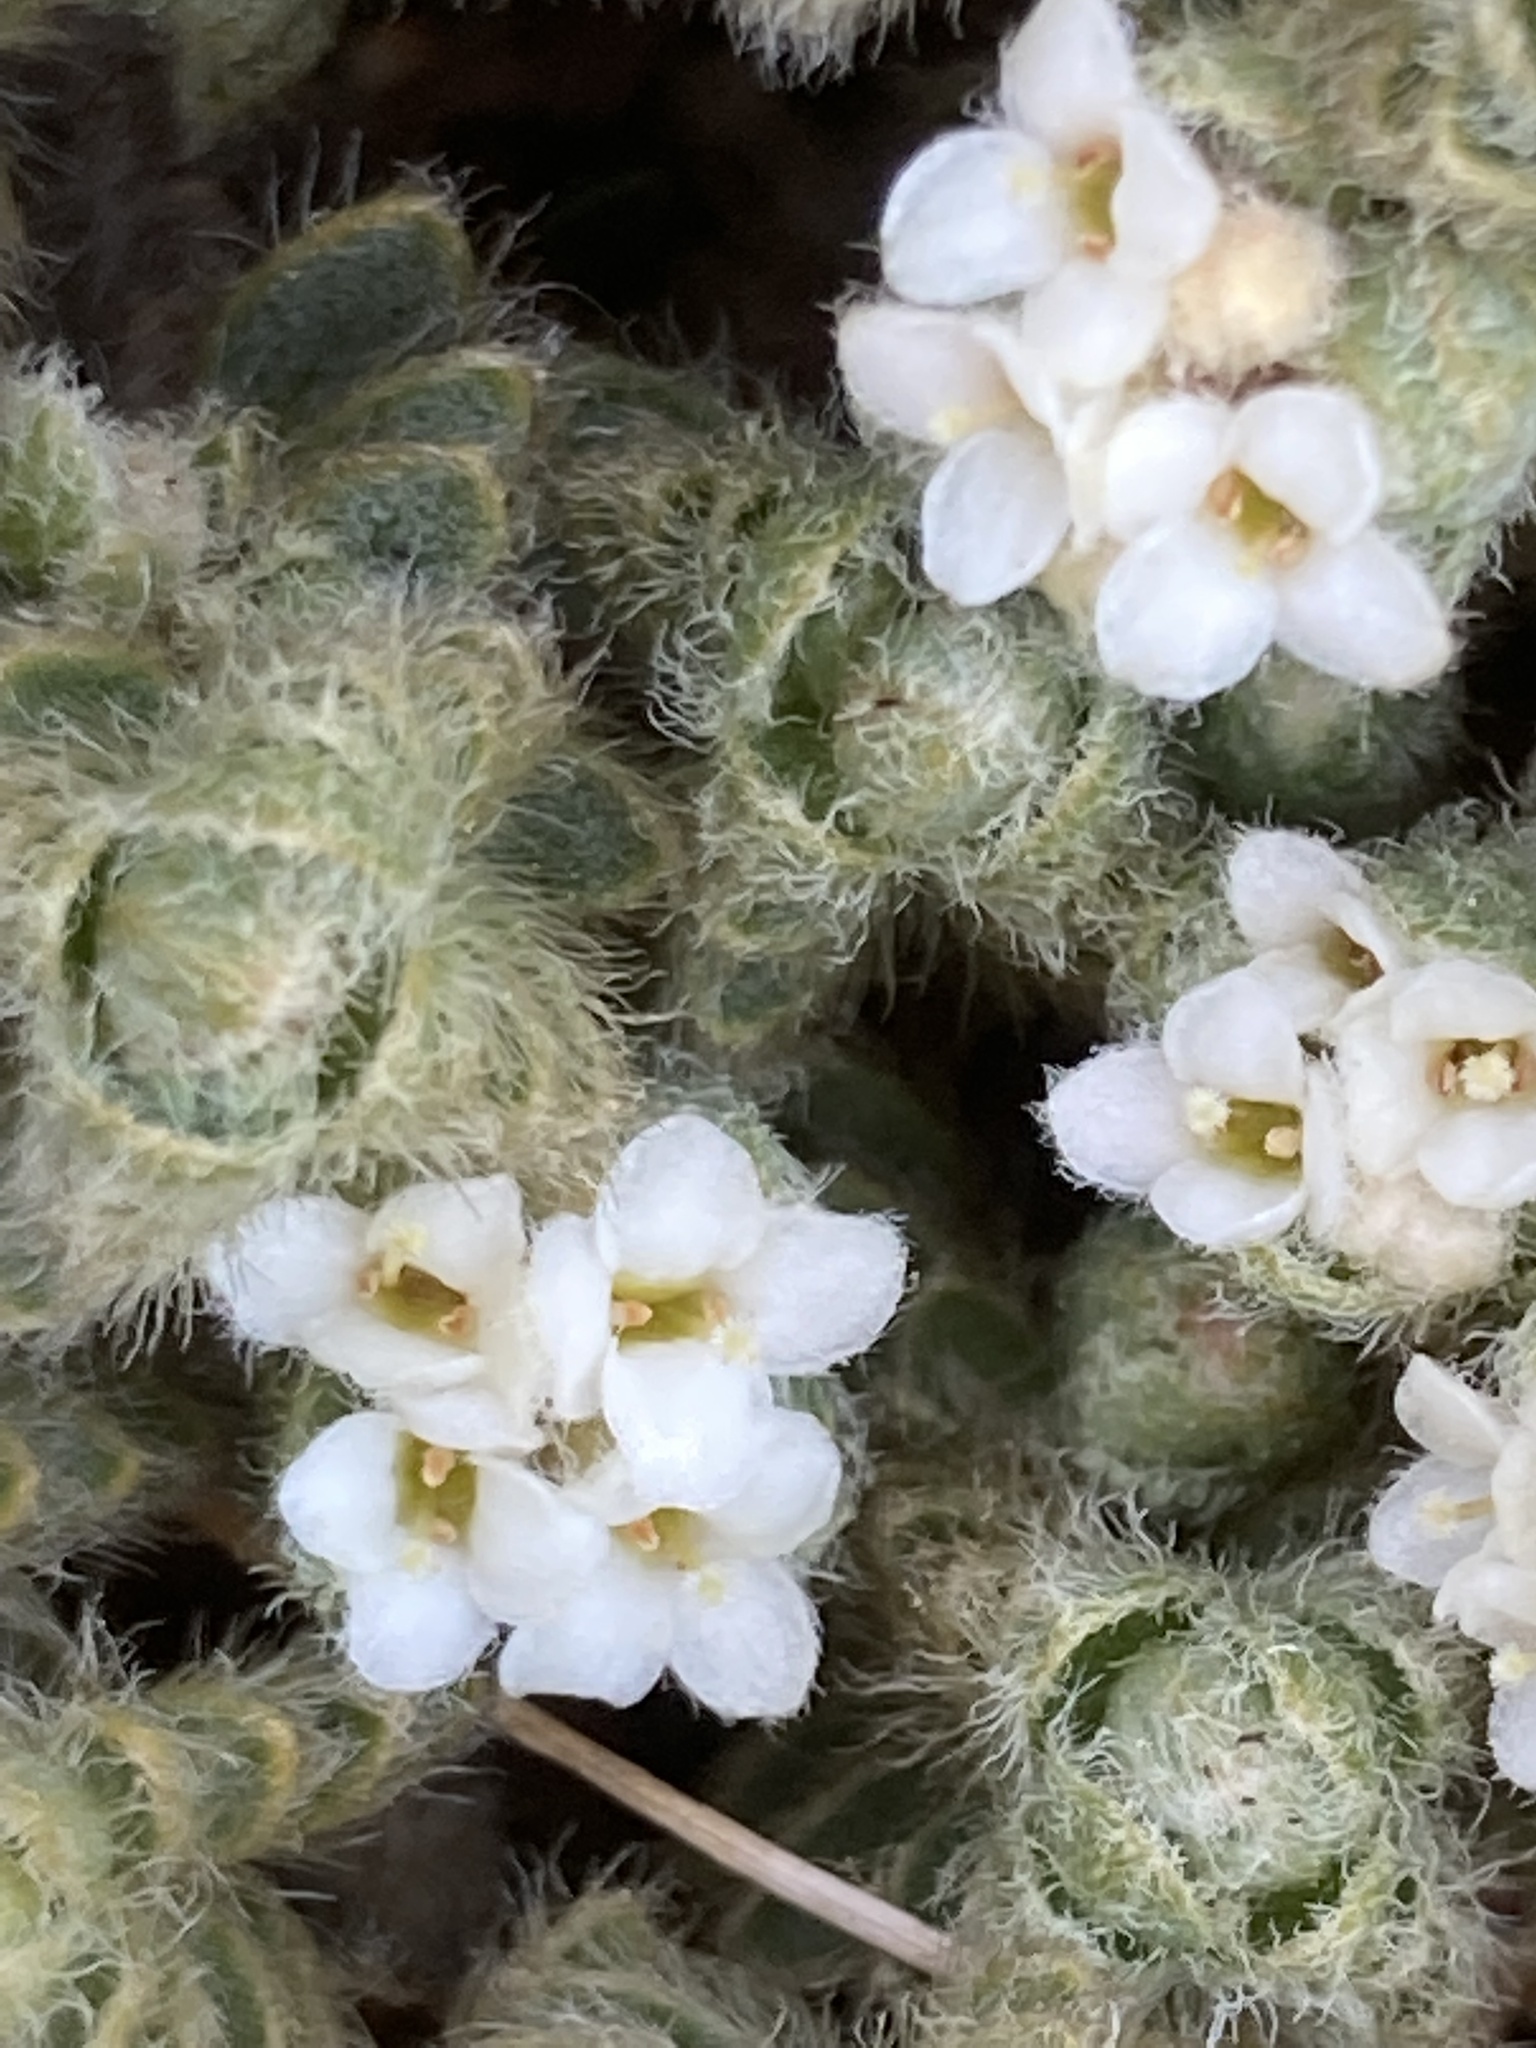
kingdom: Plantae
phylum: Tracheophyta
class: Magnoliopsida
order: Malvales
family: Thymelaeaceae
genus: Pimelea
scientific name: Pimelea mesoa
